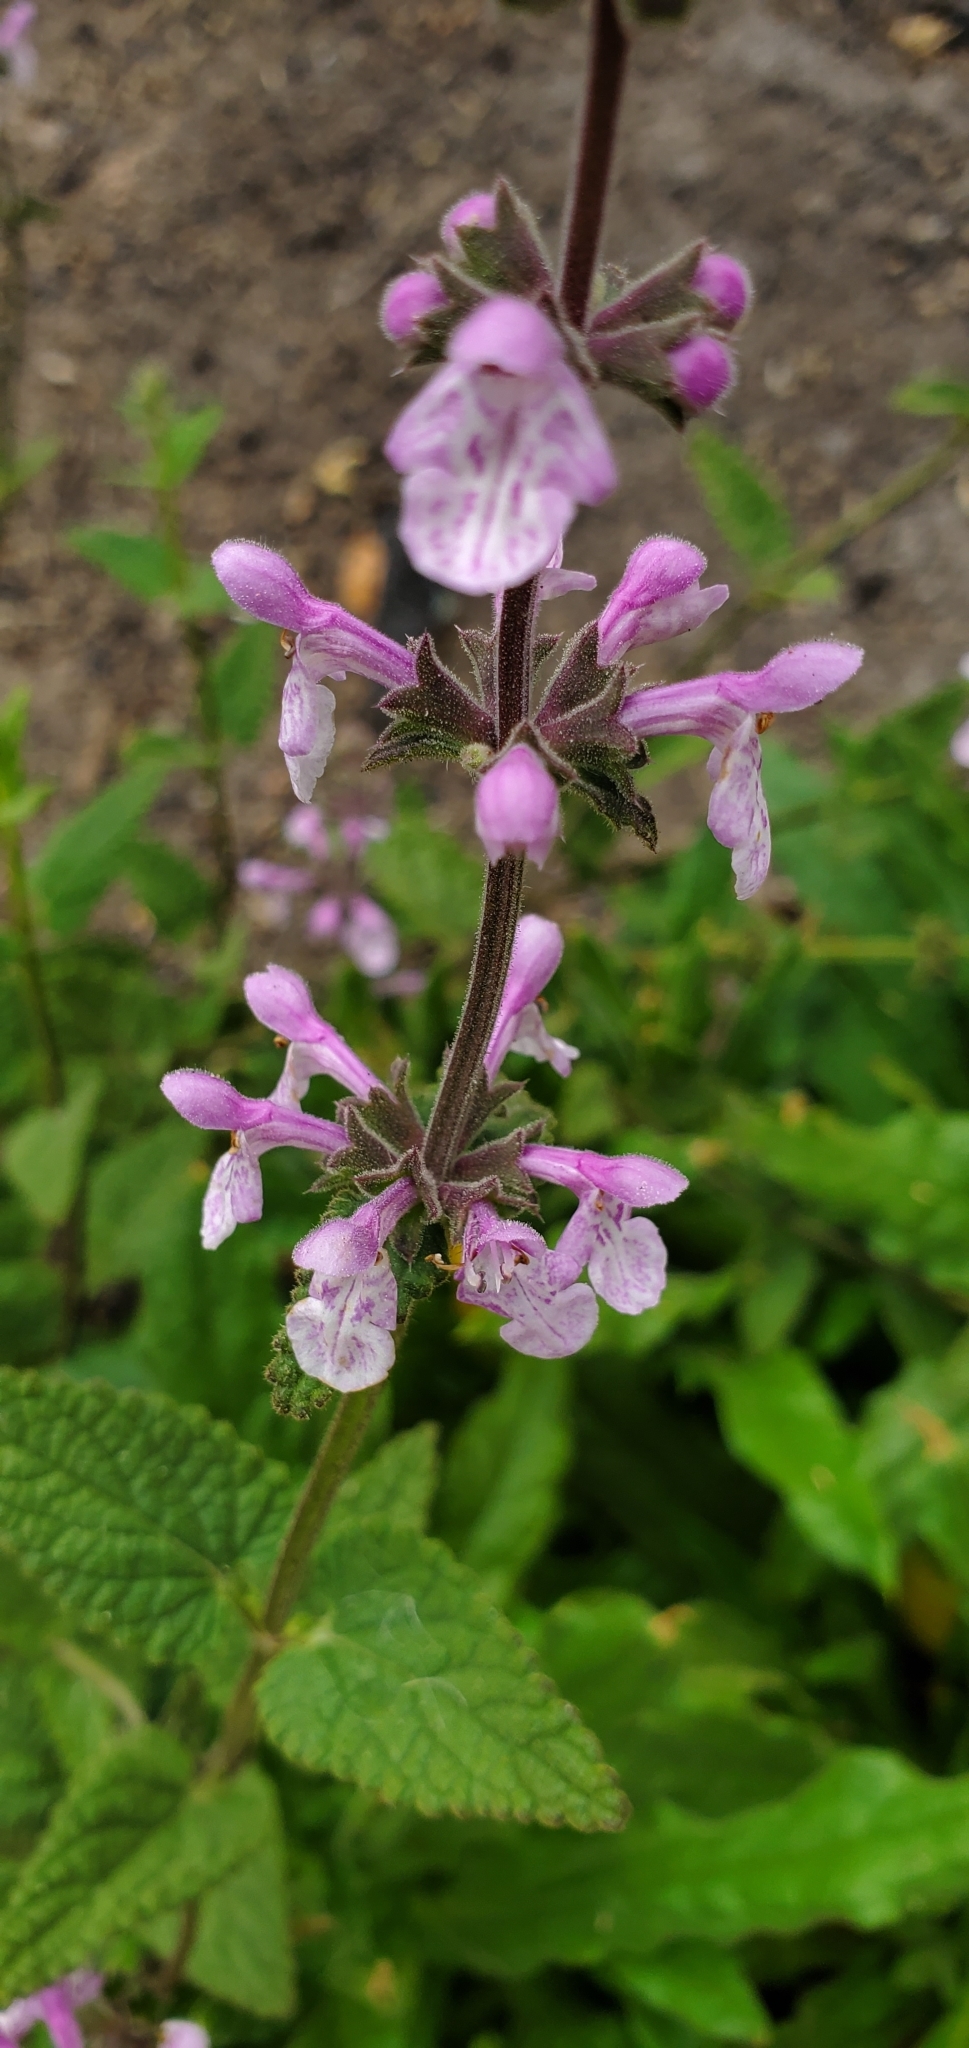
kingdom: Plantae
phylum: Tracheophyta
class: Magnoliopsida
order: Lamiales
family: Lamiaceae
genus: Stachys
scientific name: Stachys bullata
